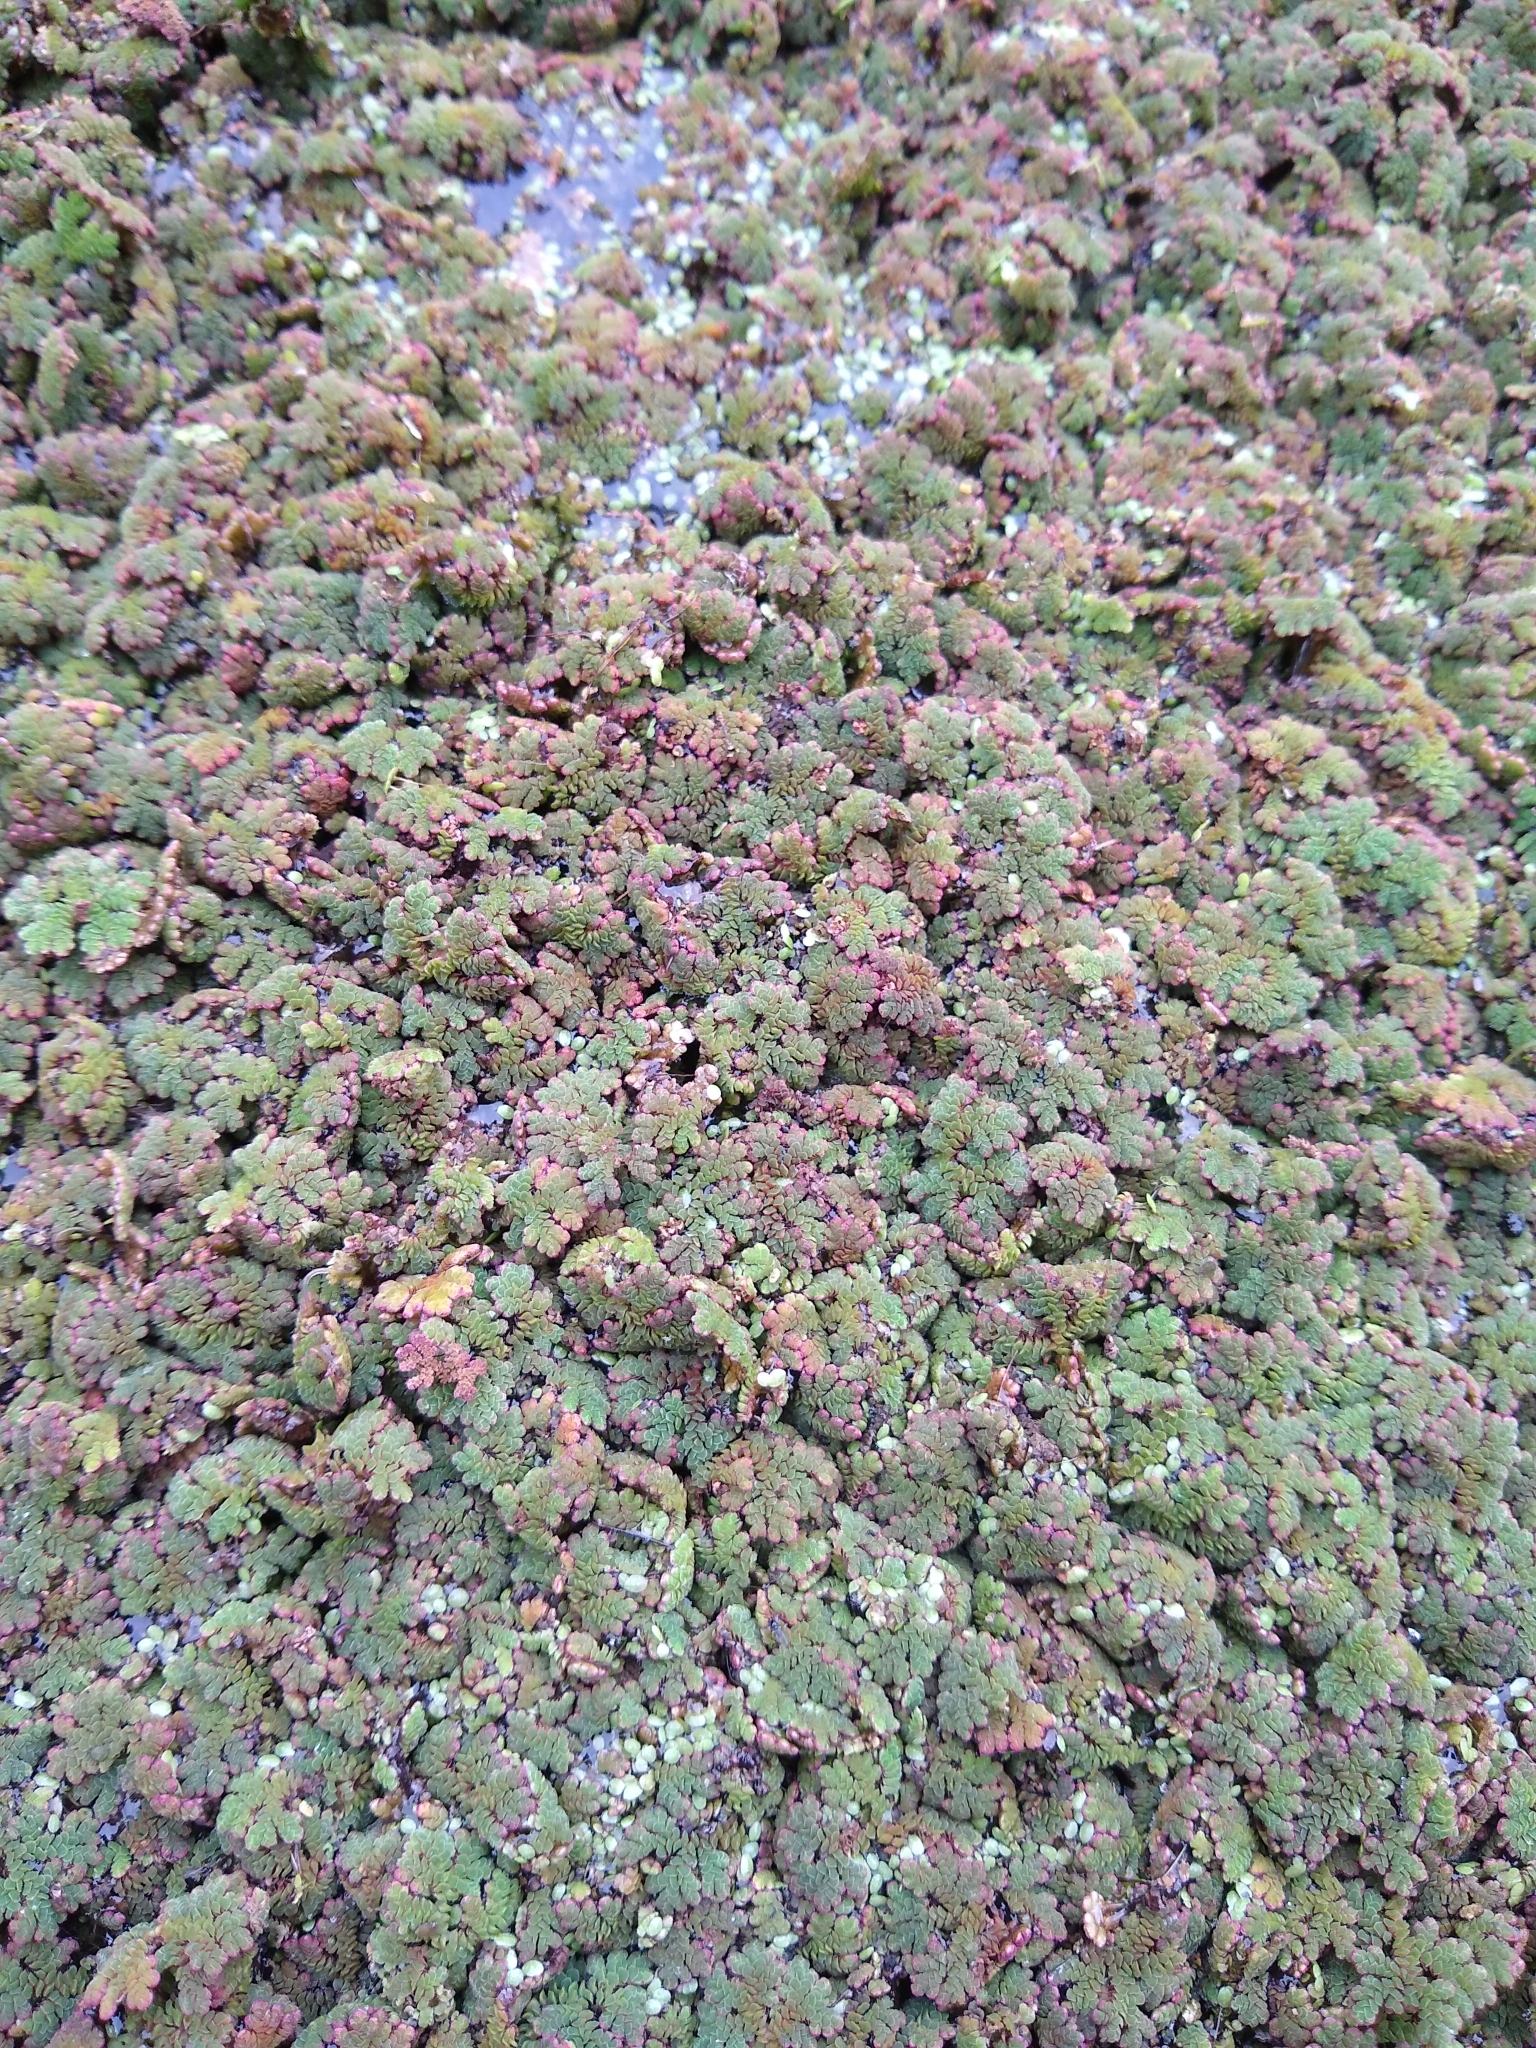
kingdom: Plantae
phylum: Tracheophyta
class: Polypodiopsida
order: Salviniales
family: Salviniaceae
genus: Azolla
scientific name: Azolla filiculoides
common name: Water fern
